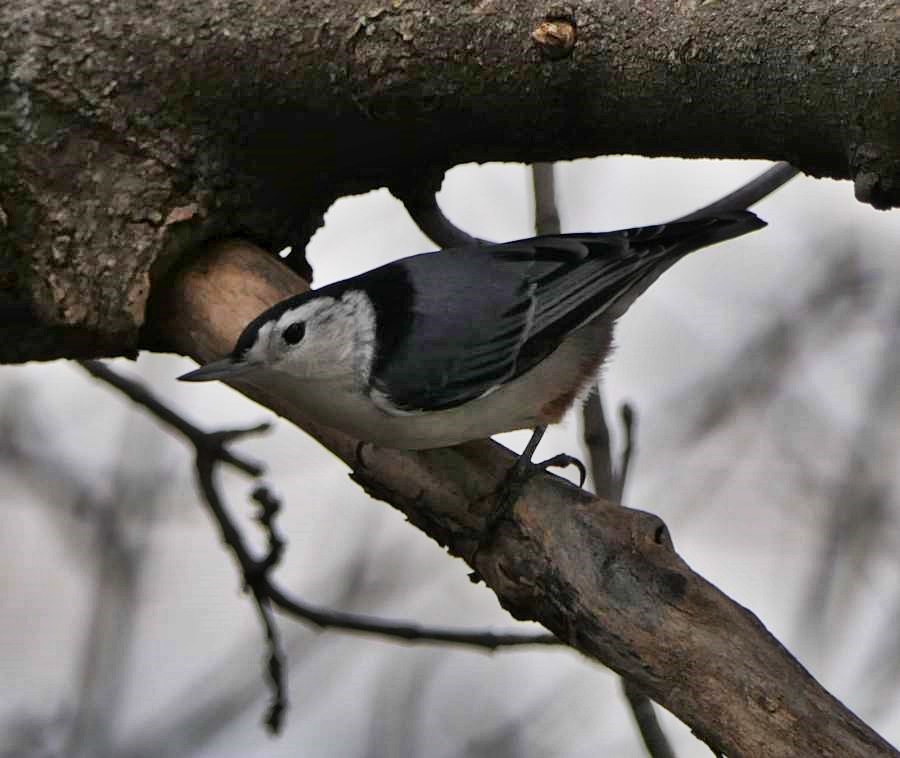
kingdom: Animalia
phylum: Chordata
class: Aves
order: Passeriformes
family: Sittidae
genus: Sitta
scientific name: Sitta carolinensis
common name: White-breasted nuthatch
